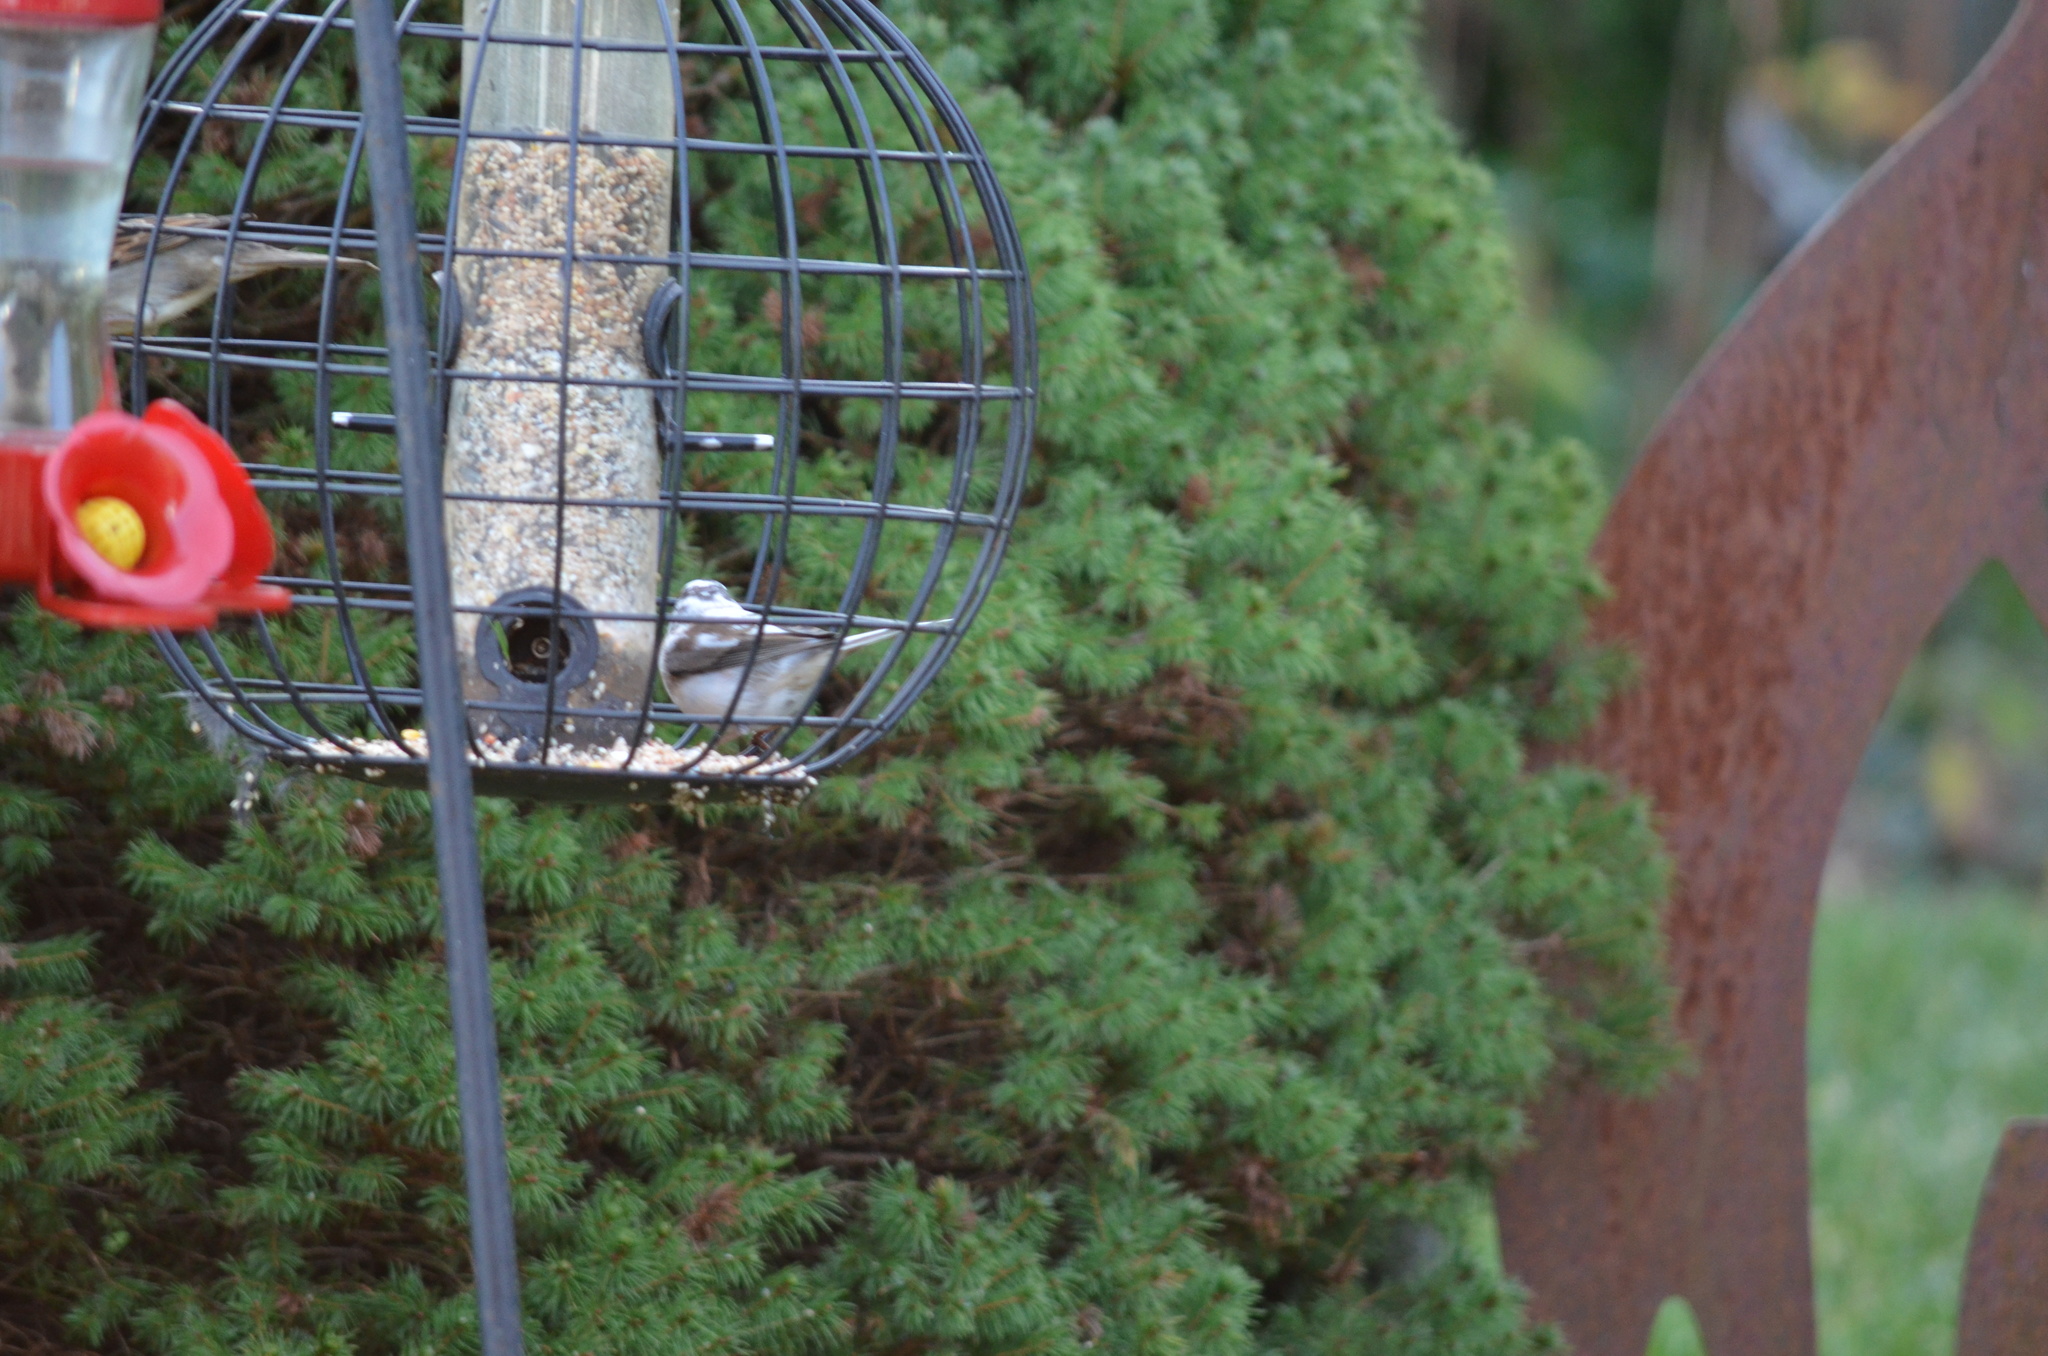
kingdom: Animalia
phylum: Chordata
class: Aves
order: Passeriformes
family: Passerellidae
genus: Junco
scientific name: Junco hyemalis
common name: Dark-eyed junco
